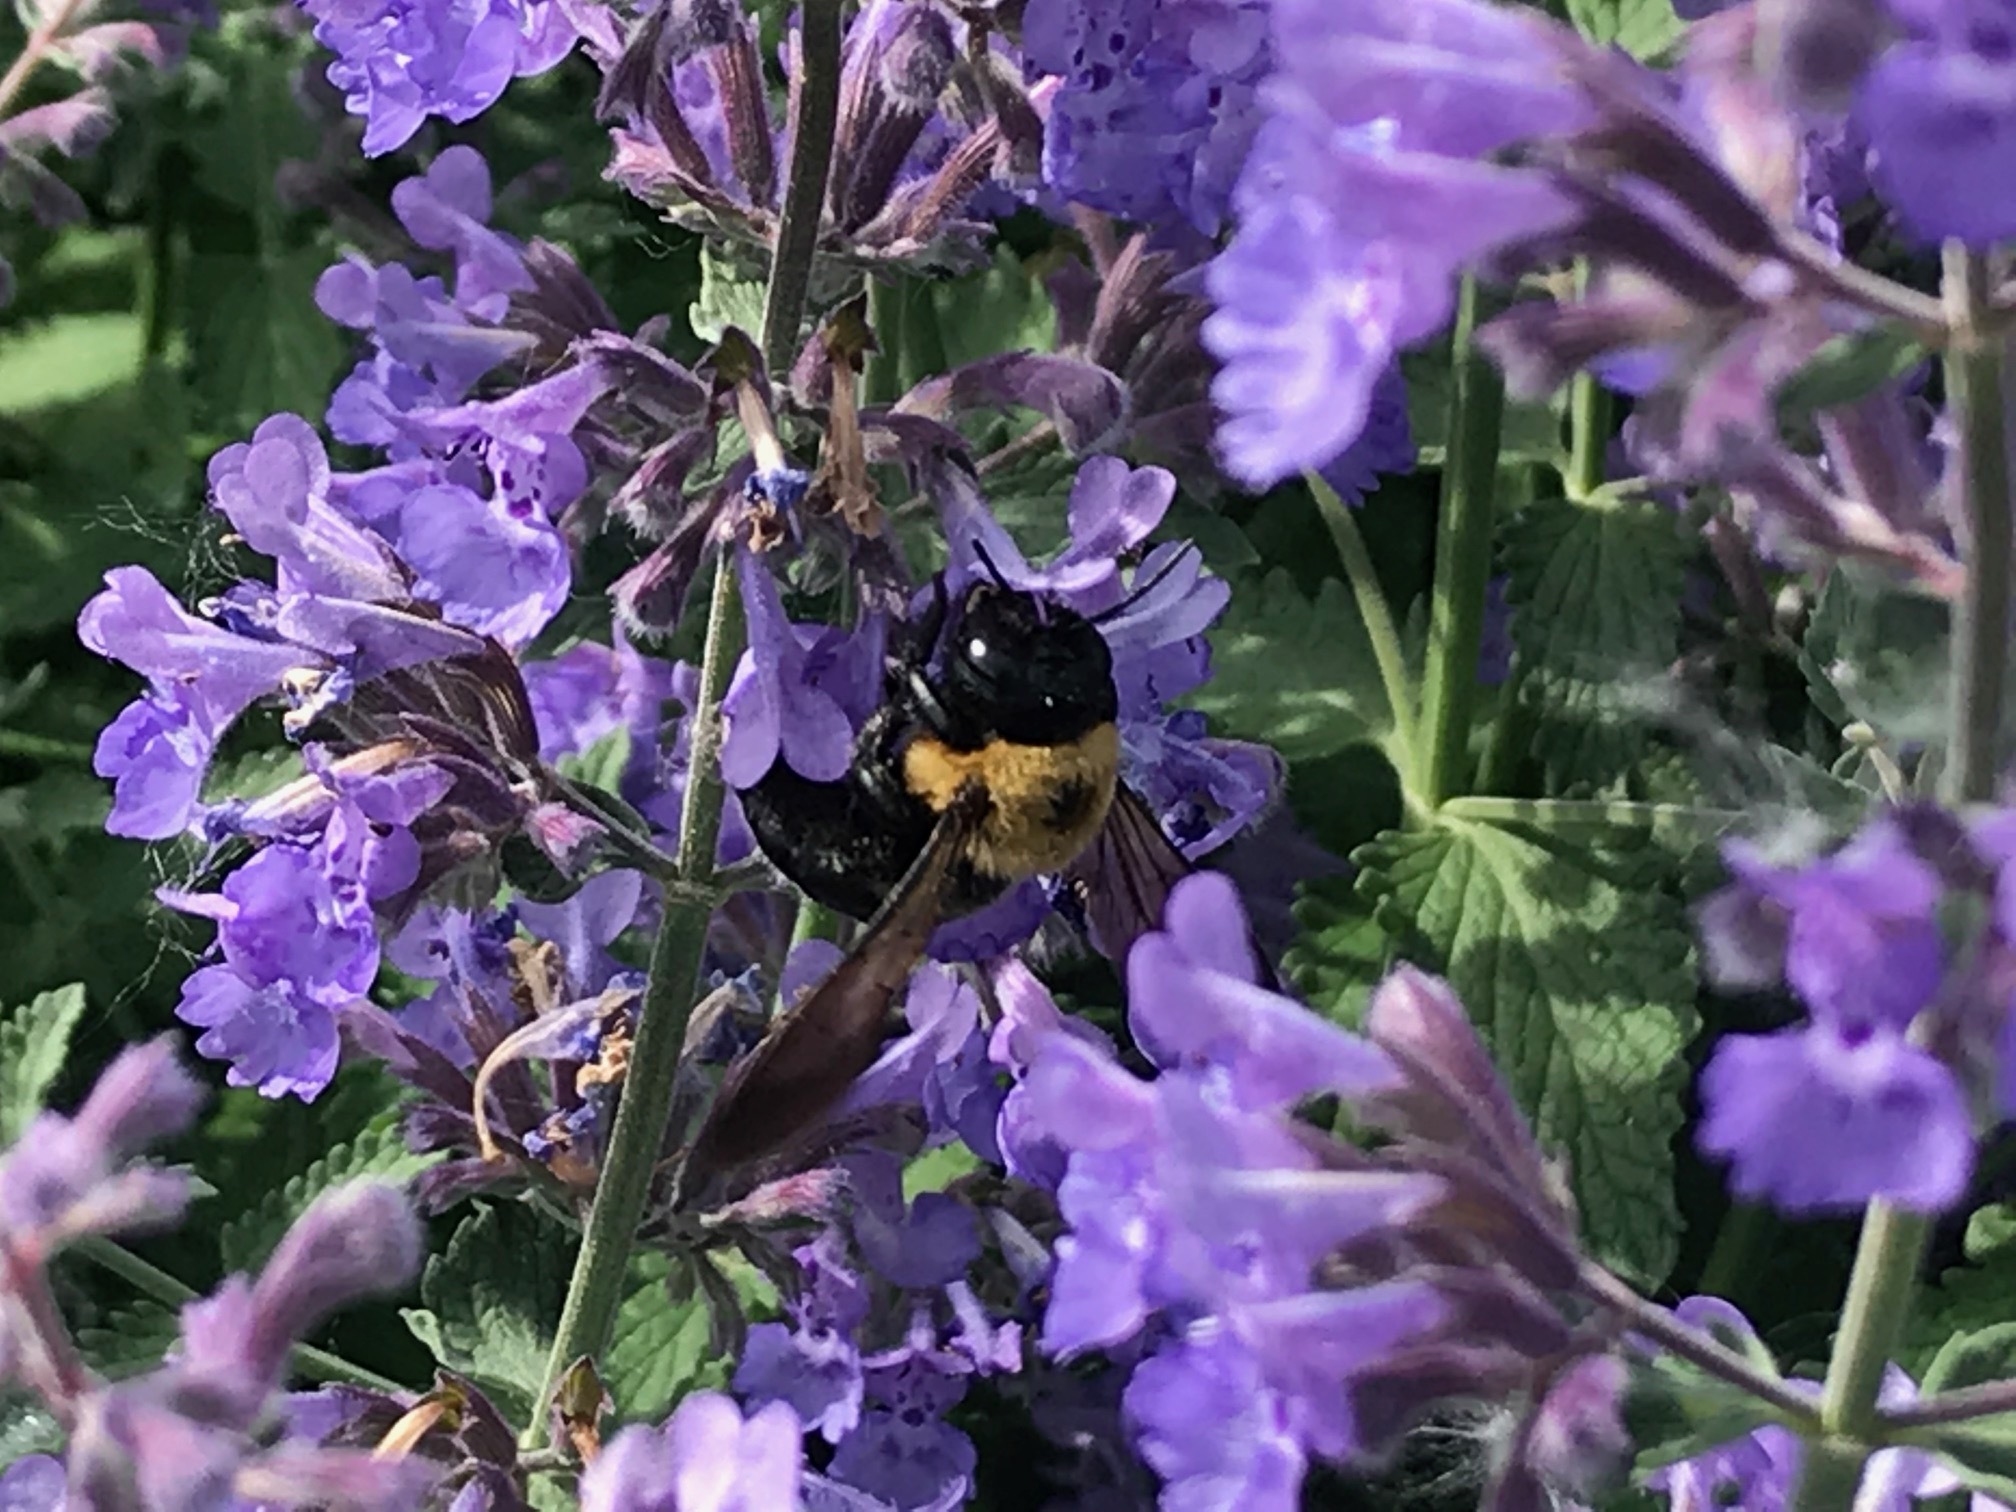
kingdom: Animalia
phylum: Arthropoda
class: Insecta
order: Hymenoptera
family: Apidae
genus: Xylocopa
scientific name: Xylocopa virginica
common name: Carpenter bee
